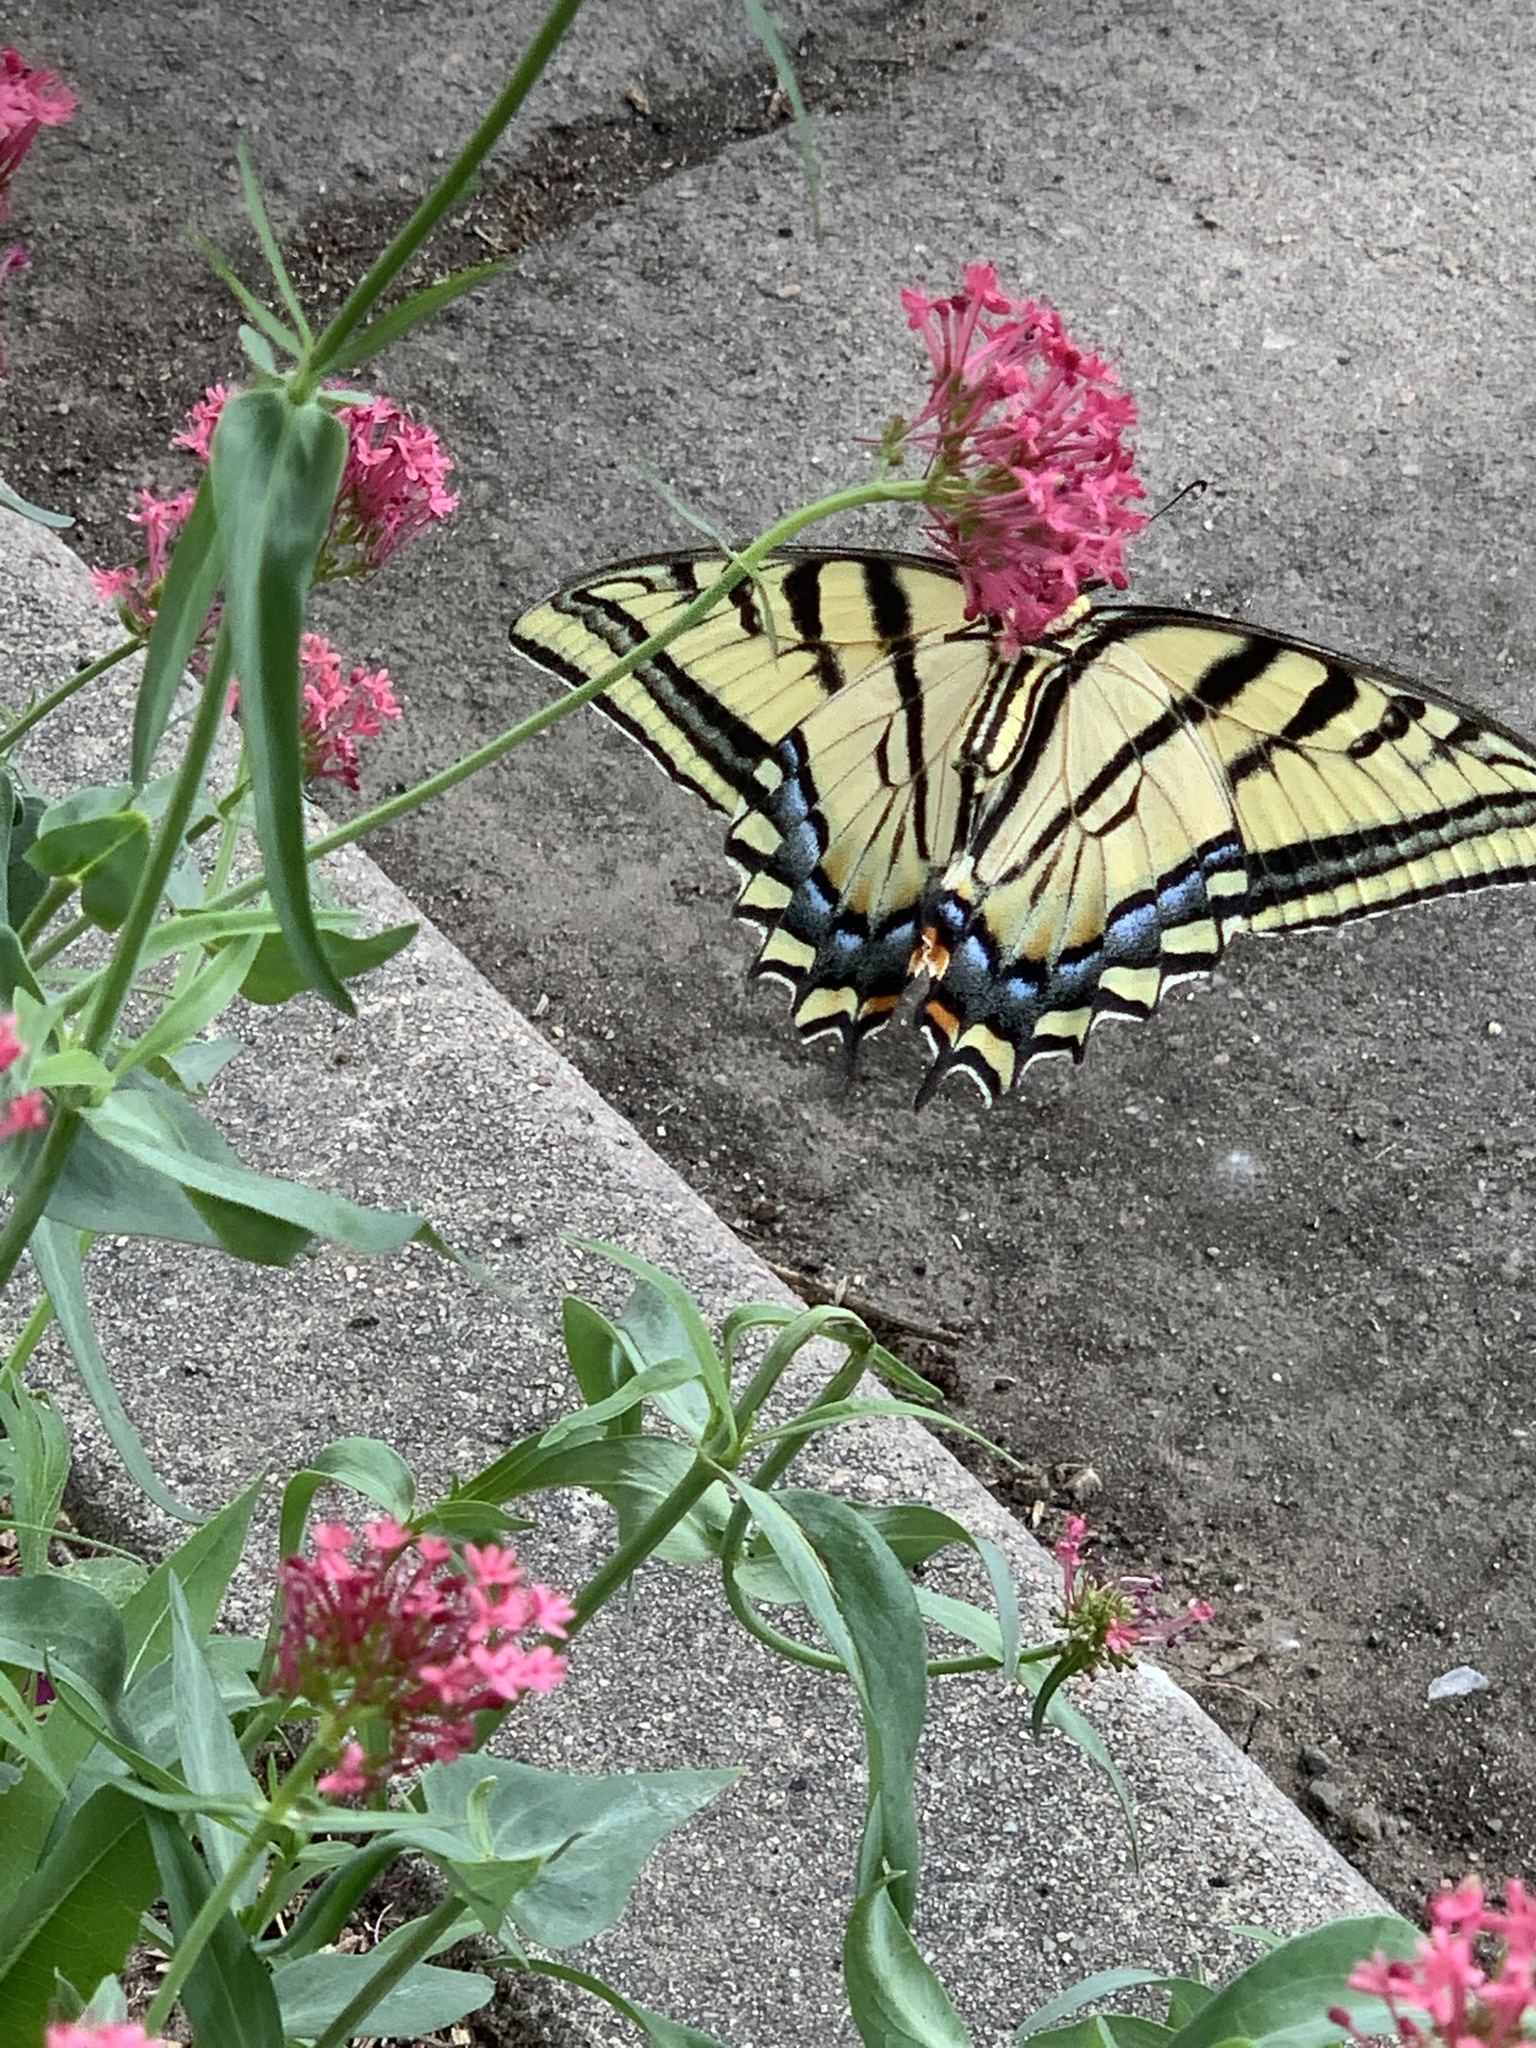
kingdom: Animalia
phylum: Arthropoda
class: Insecta
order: Lepidoptera
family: Papilionidae
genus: Papilio
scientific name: Papilio multicaudata
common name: Two-tailed tiger swallowtail
